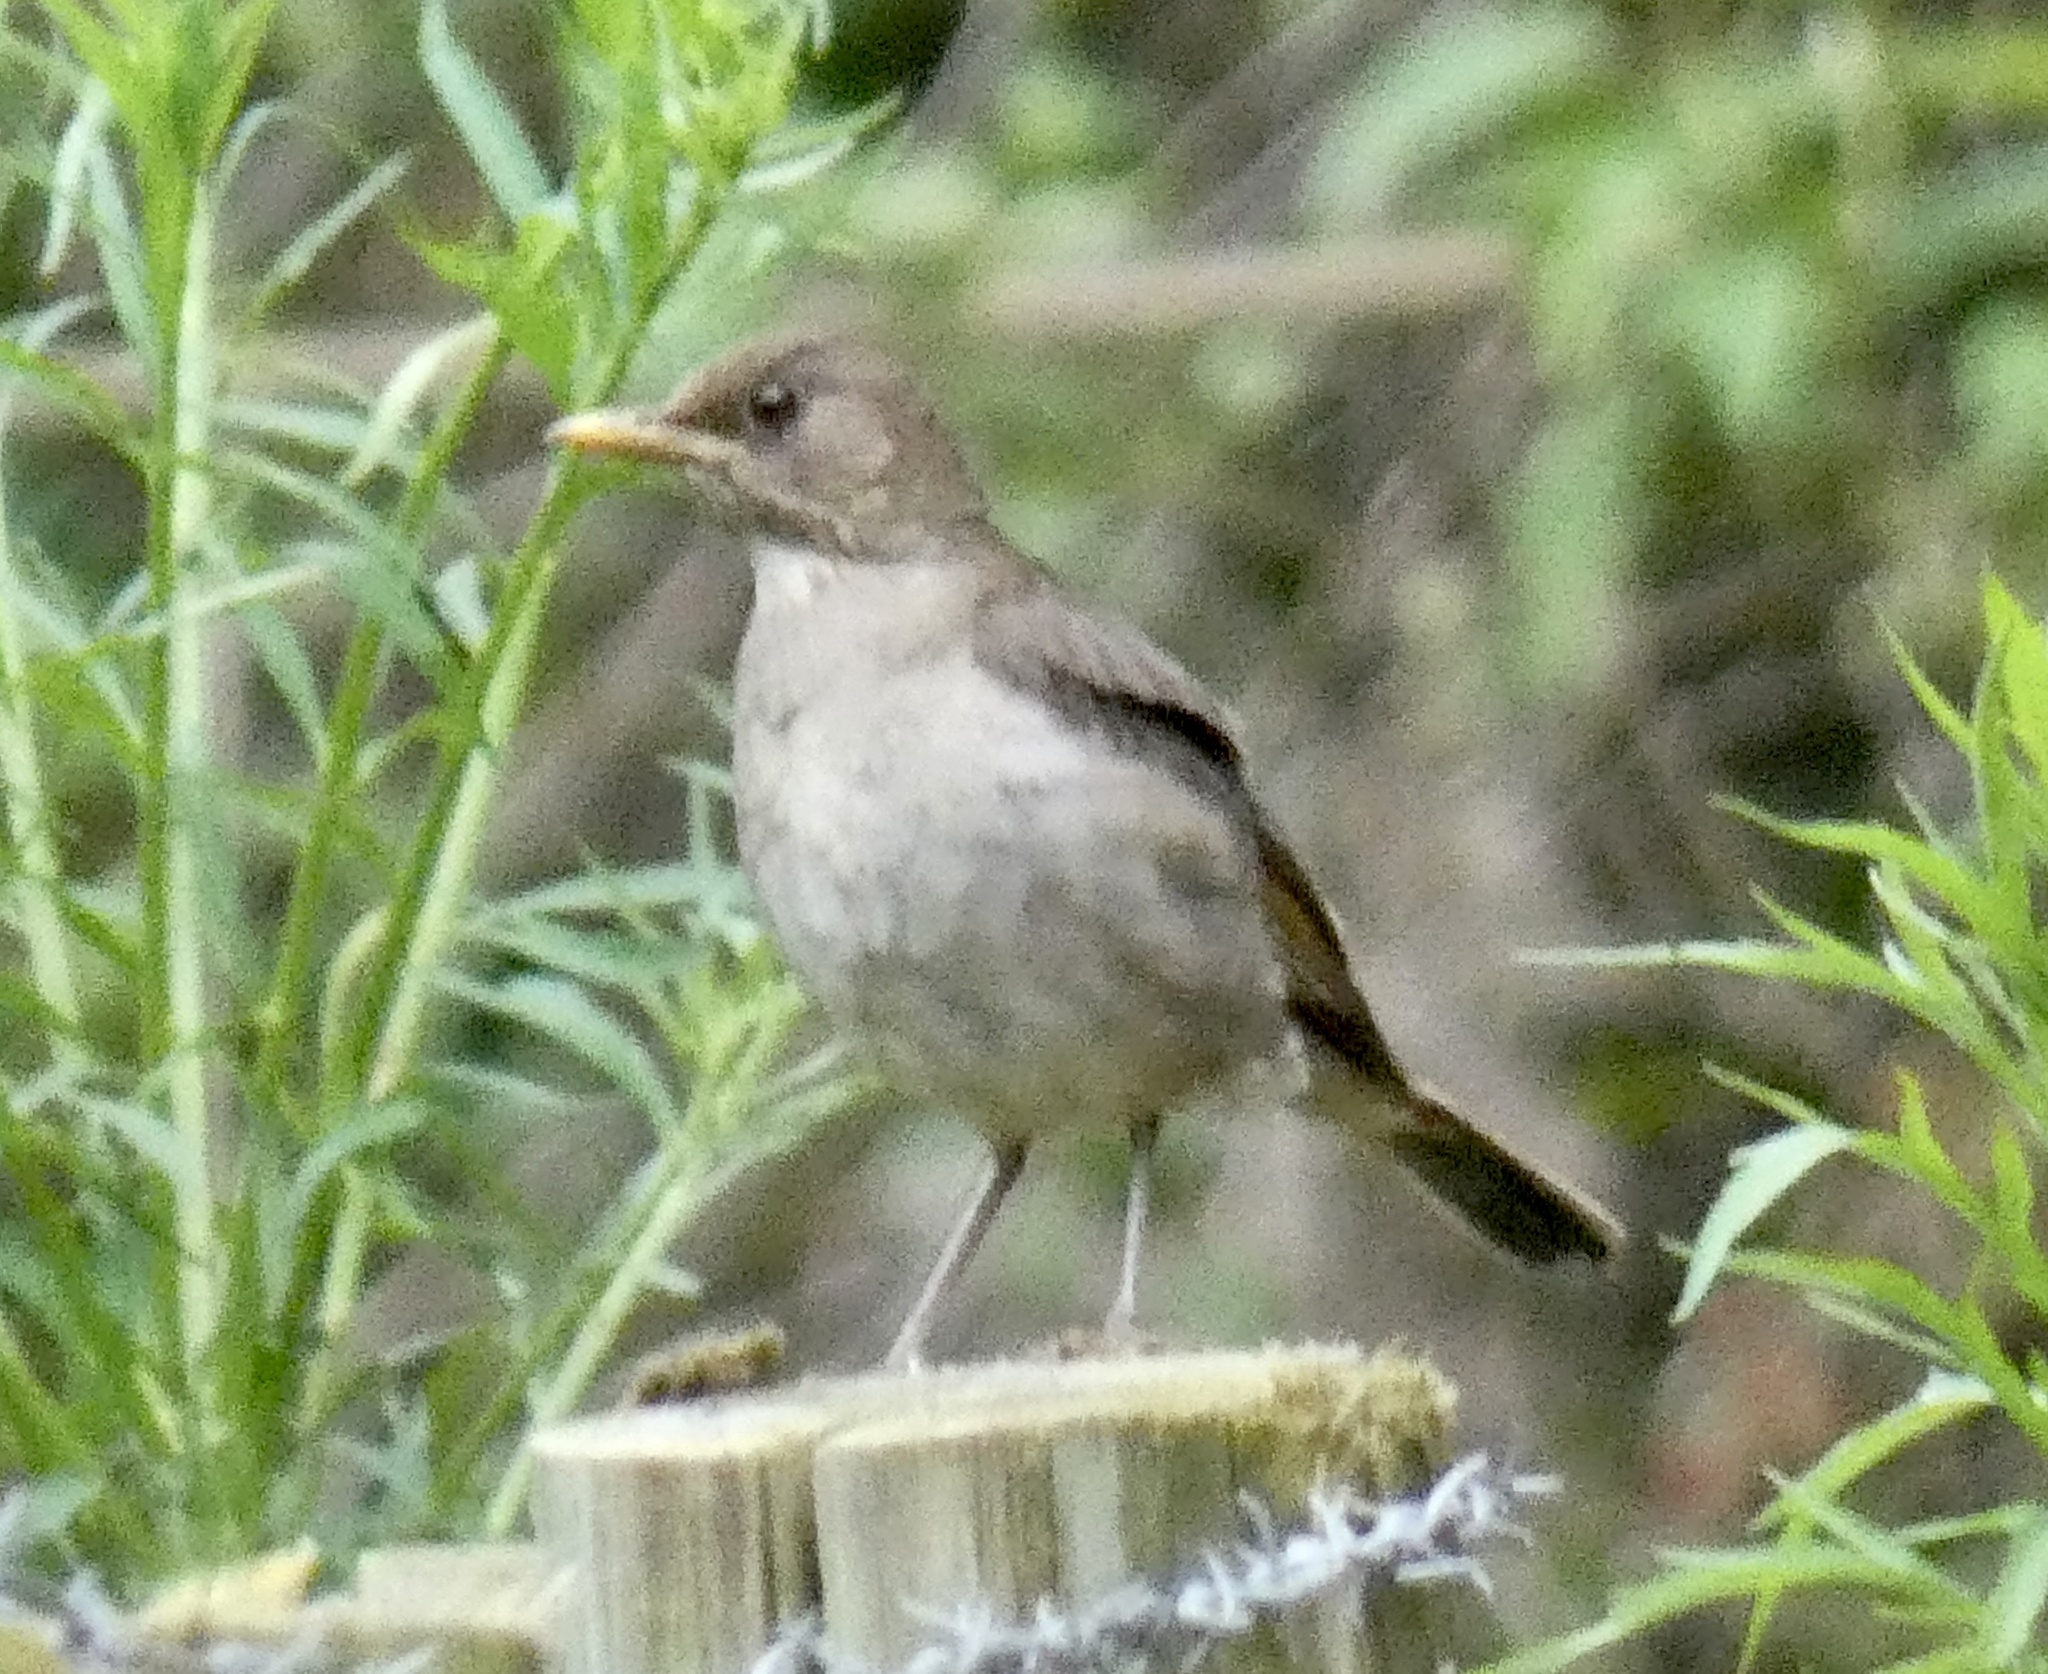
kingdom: Animalia
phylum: Chordata
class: Aves
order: Passeriformes
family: Turdidae
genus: Turdus
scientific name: Turdus amaurochalinus
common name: Creamy-bellied thrush
